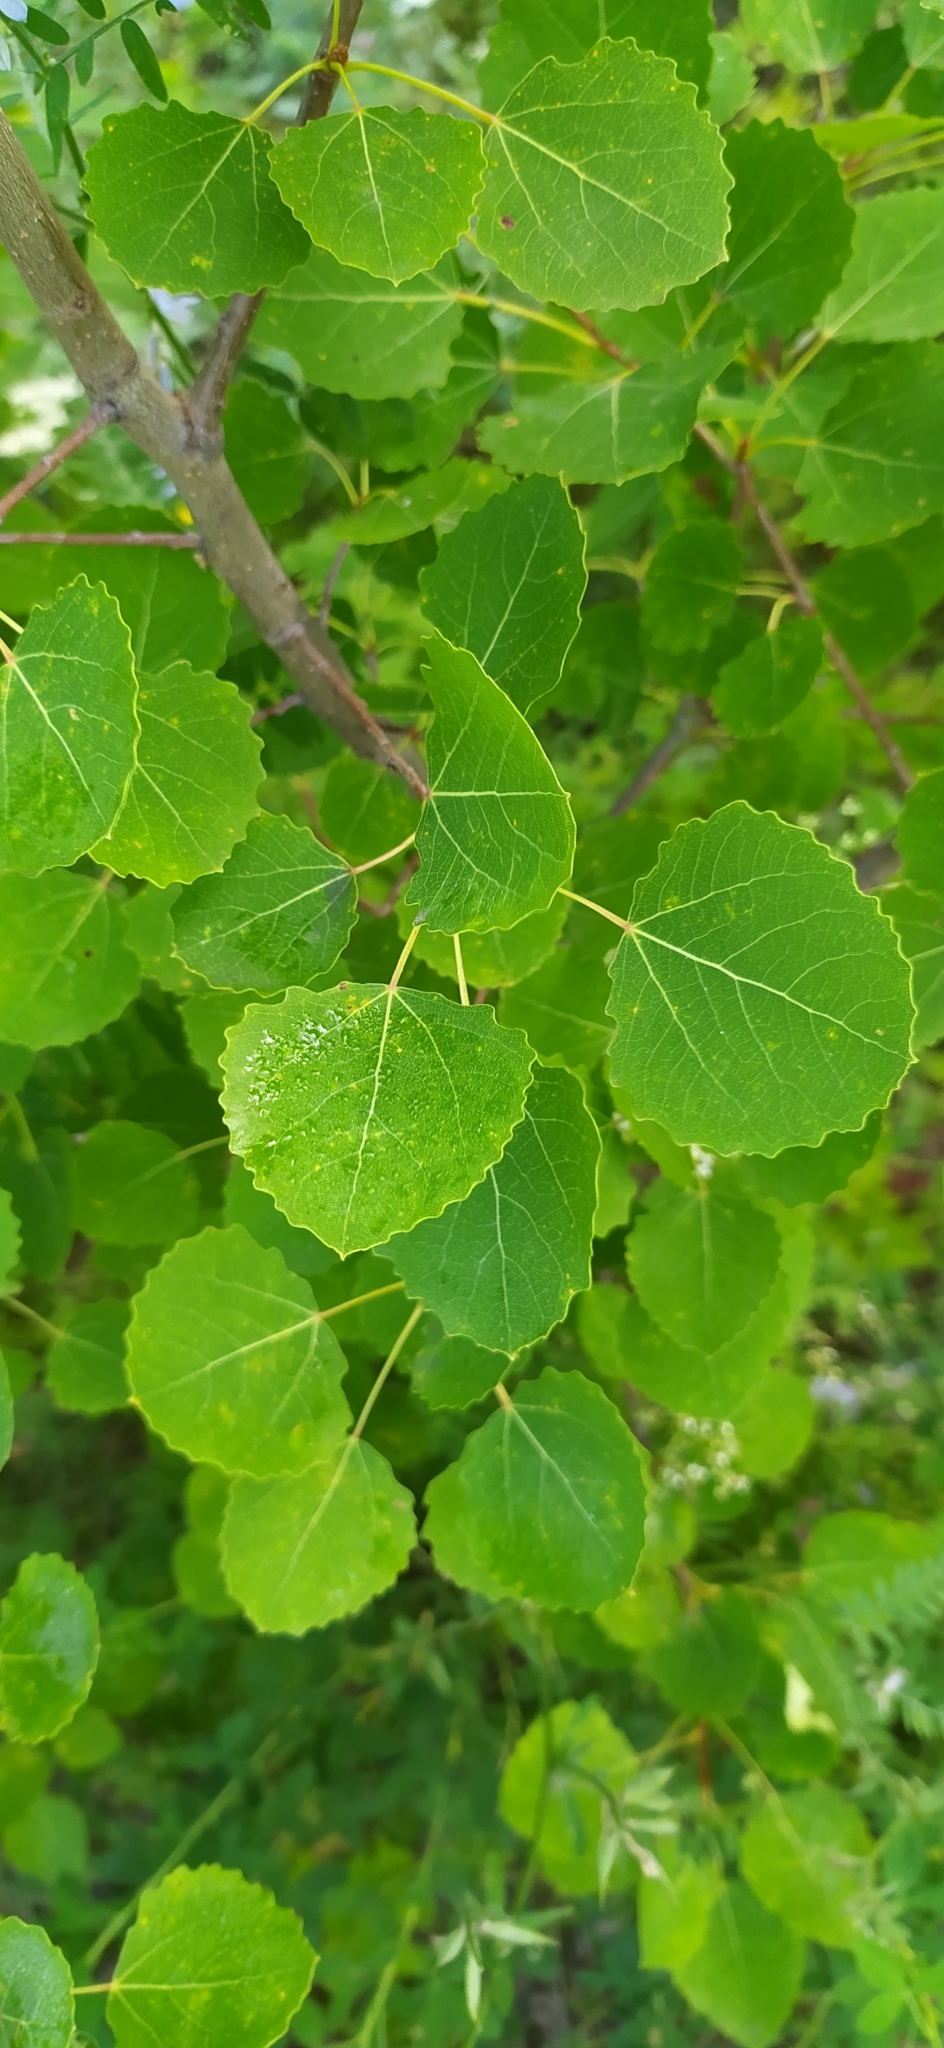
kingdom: Plantae
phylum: Tracheophyta
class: Magnoliopsida
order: Malpighiales
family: Salicaceae
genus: Populus
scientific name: Populus tremula
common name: European aspen
